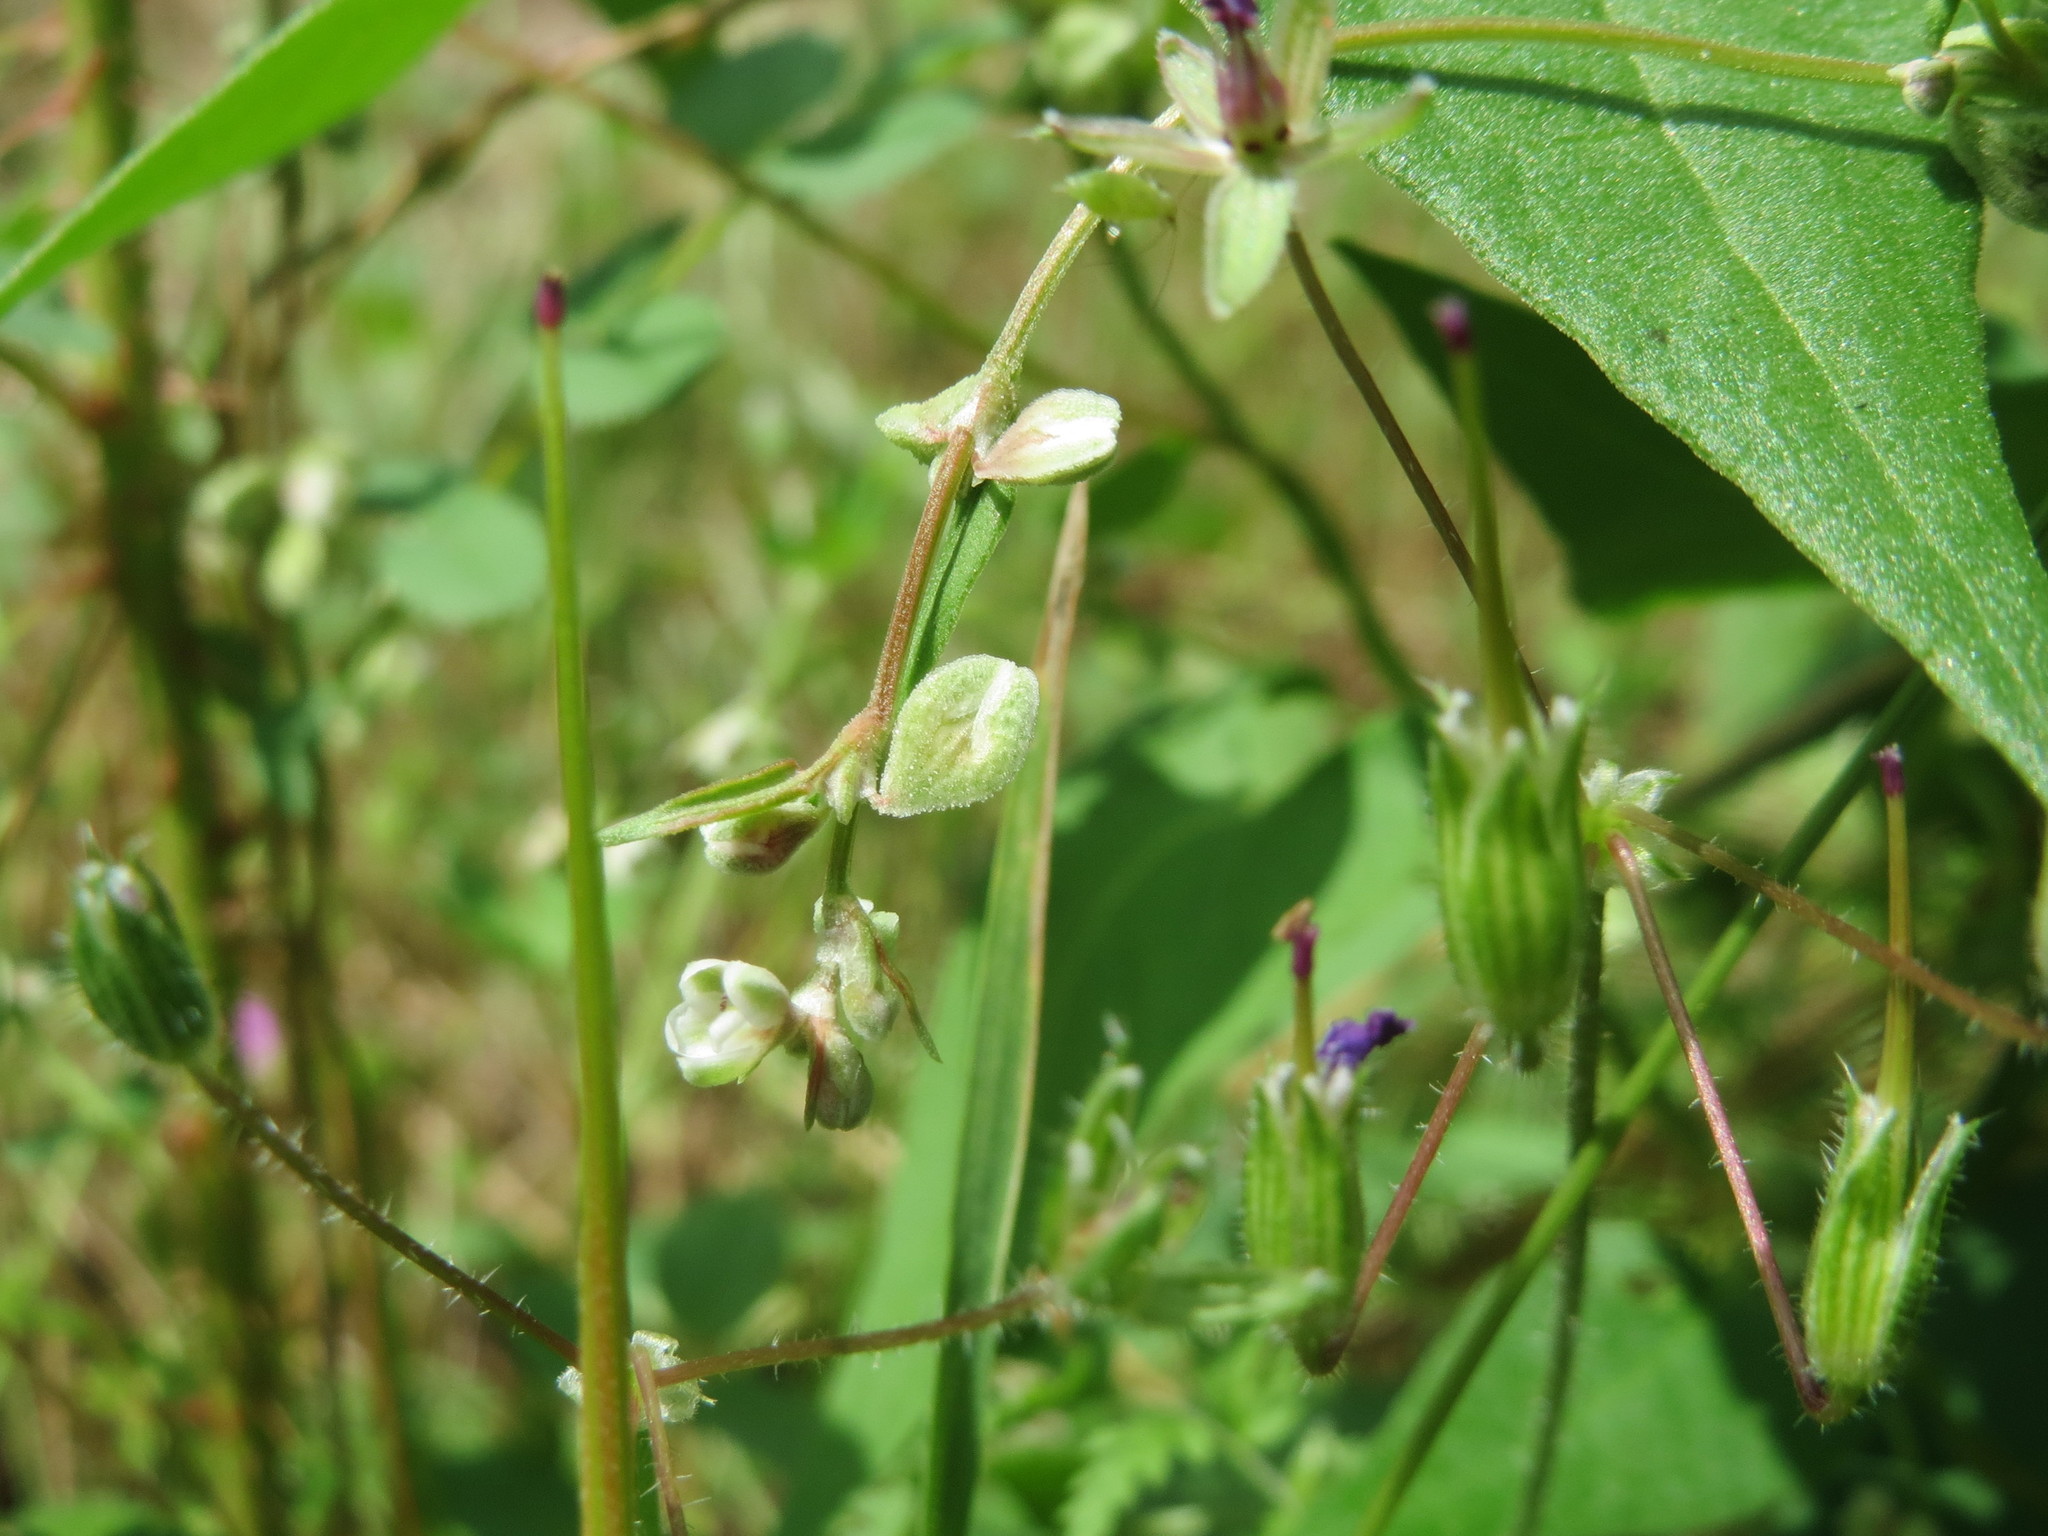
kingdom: Plantae
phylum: Tracheophyta
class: Magnoliopsida
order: Caryophyllales
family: Polygonaceae
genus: Fallopia
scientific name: Fallopia convolvulus
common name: Black bindweed
